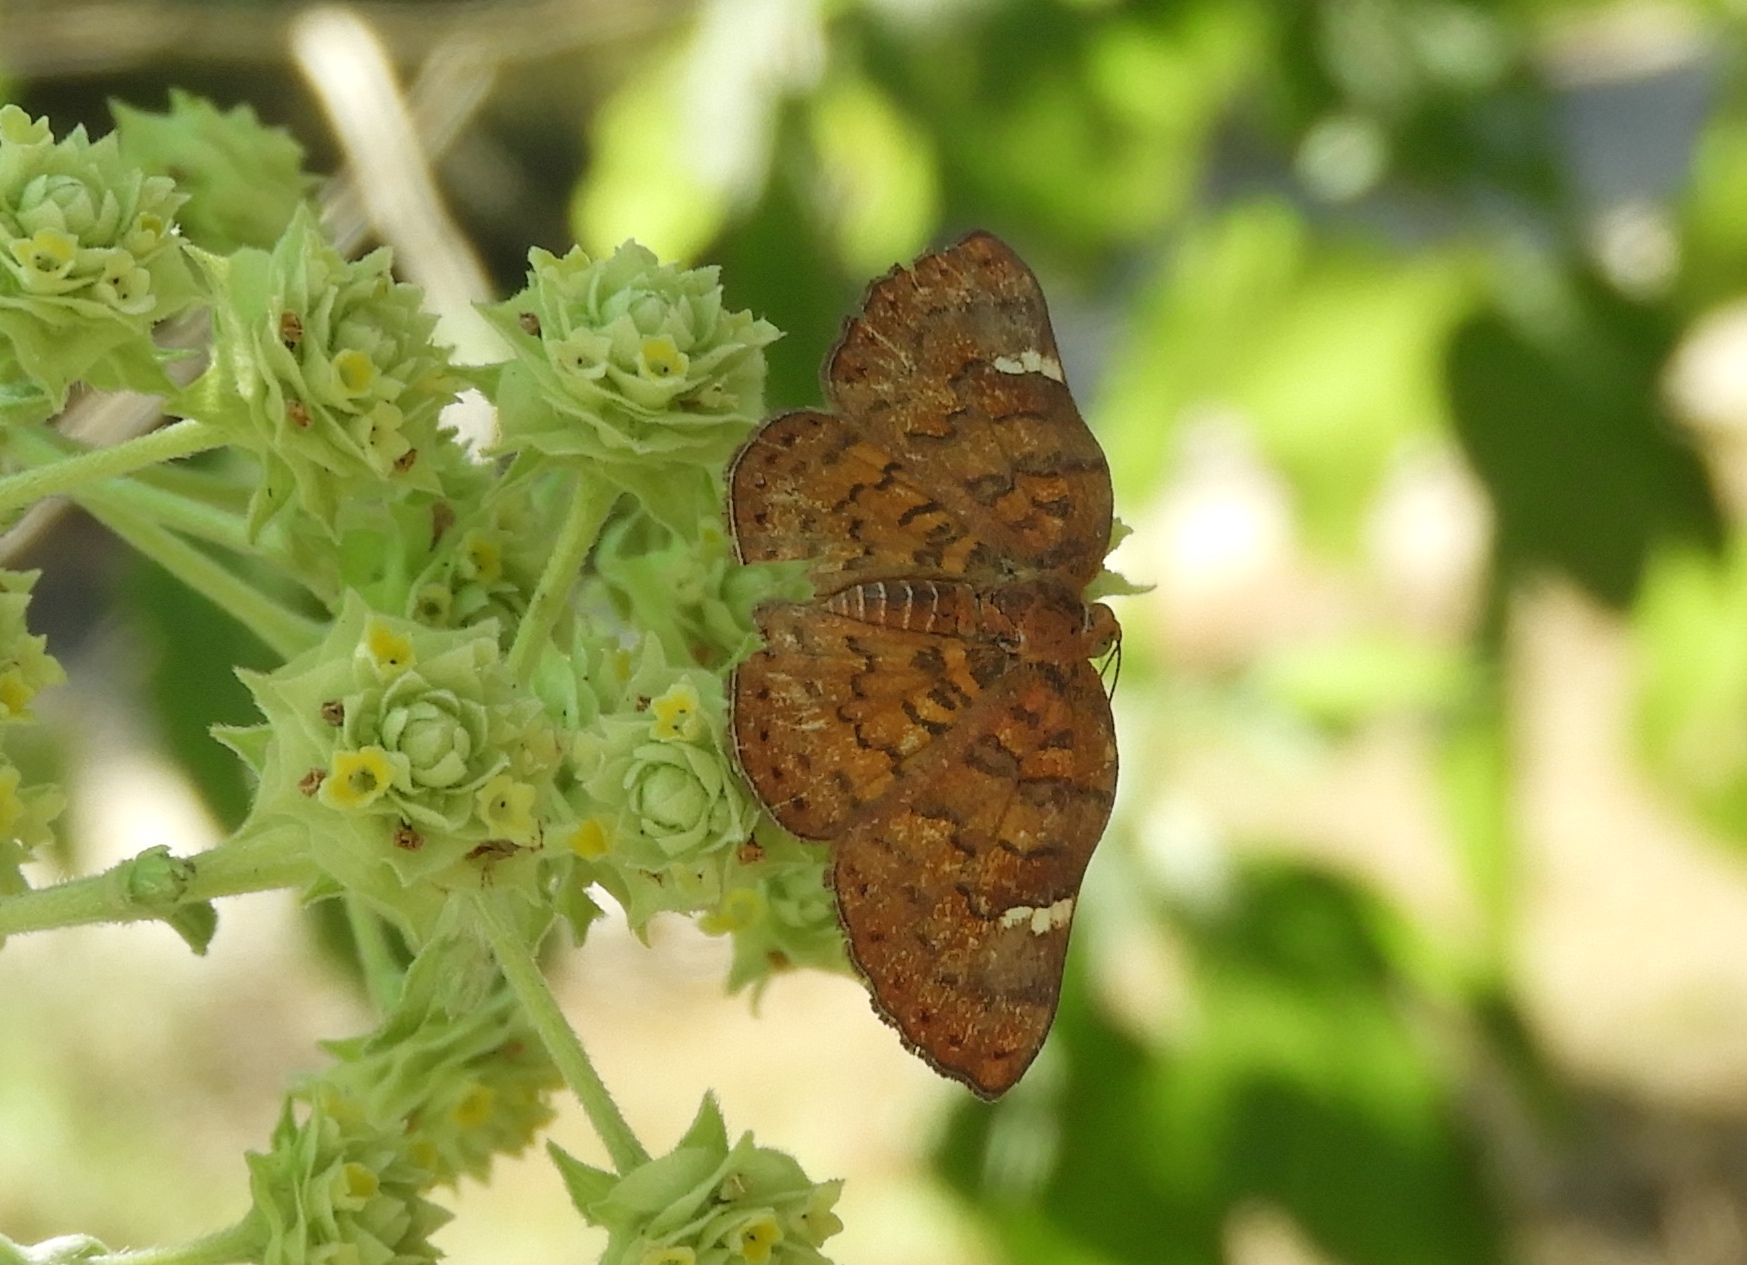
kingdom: Animalia
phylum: Arthropoda
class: Insecta
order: Lepidoptera
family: Riodinidae
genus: Curvie
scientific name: Curvie emesia
